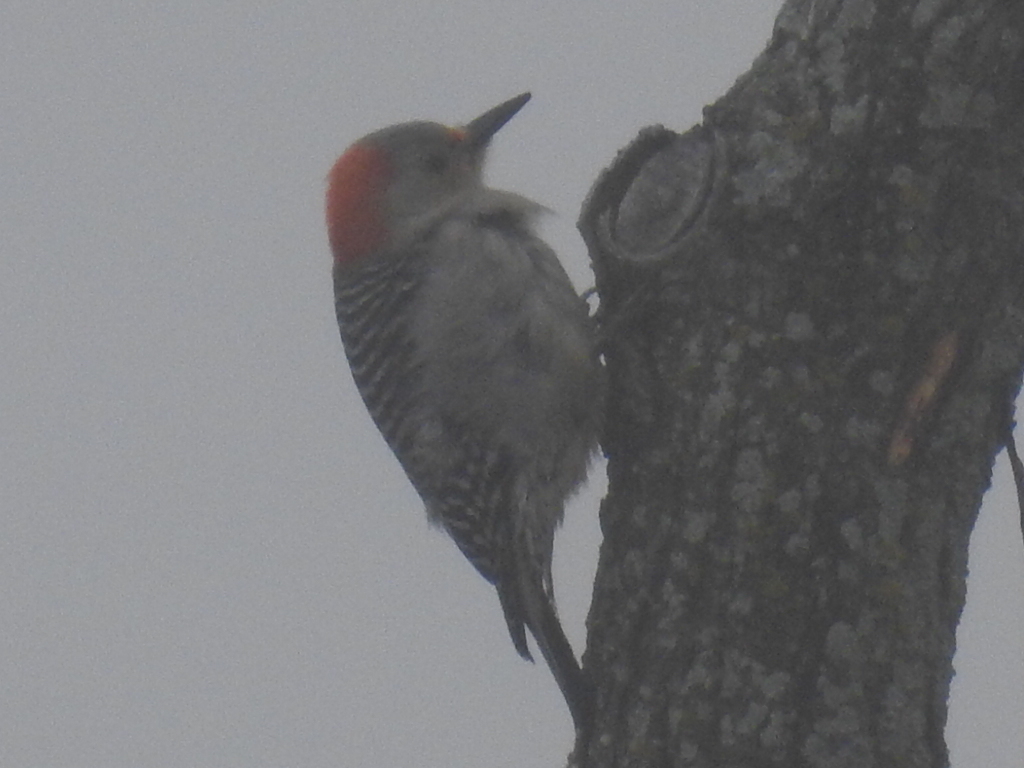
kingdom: Animalia
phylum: Chordata
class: Aves
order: Piciformes
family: Picidae
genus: Melanerpes
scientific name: Melanerpes carolinus
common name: Red-bellied woodpecker
